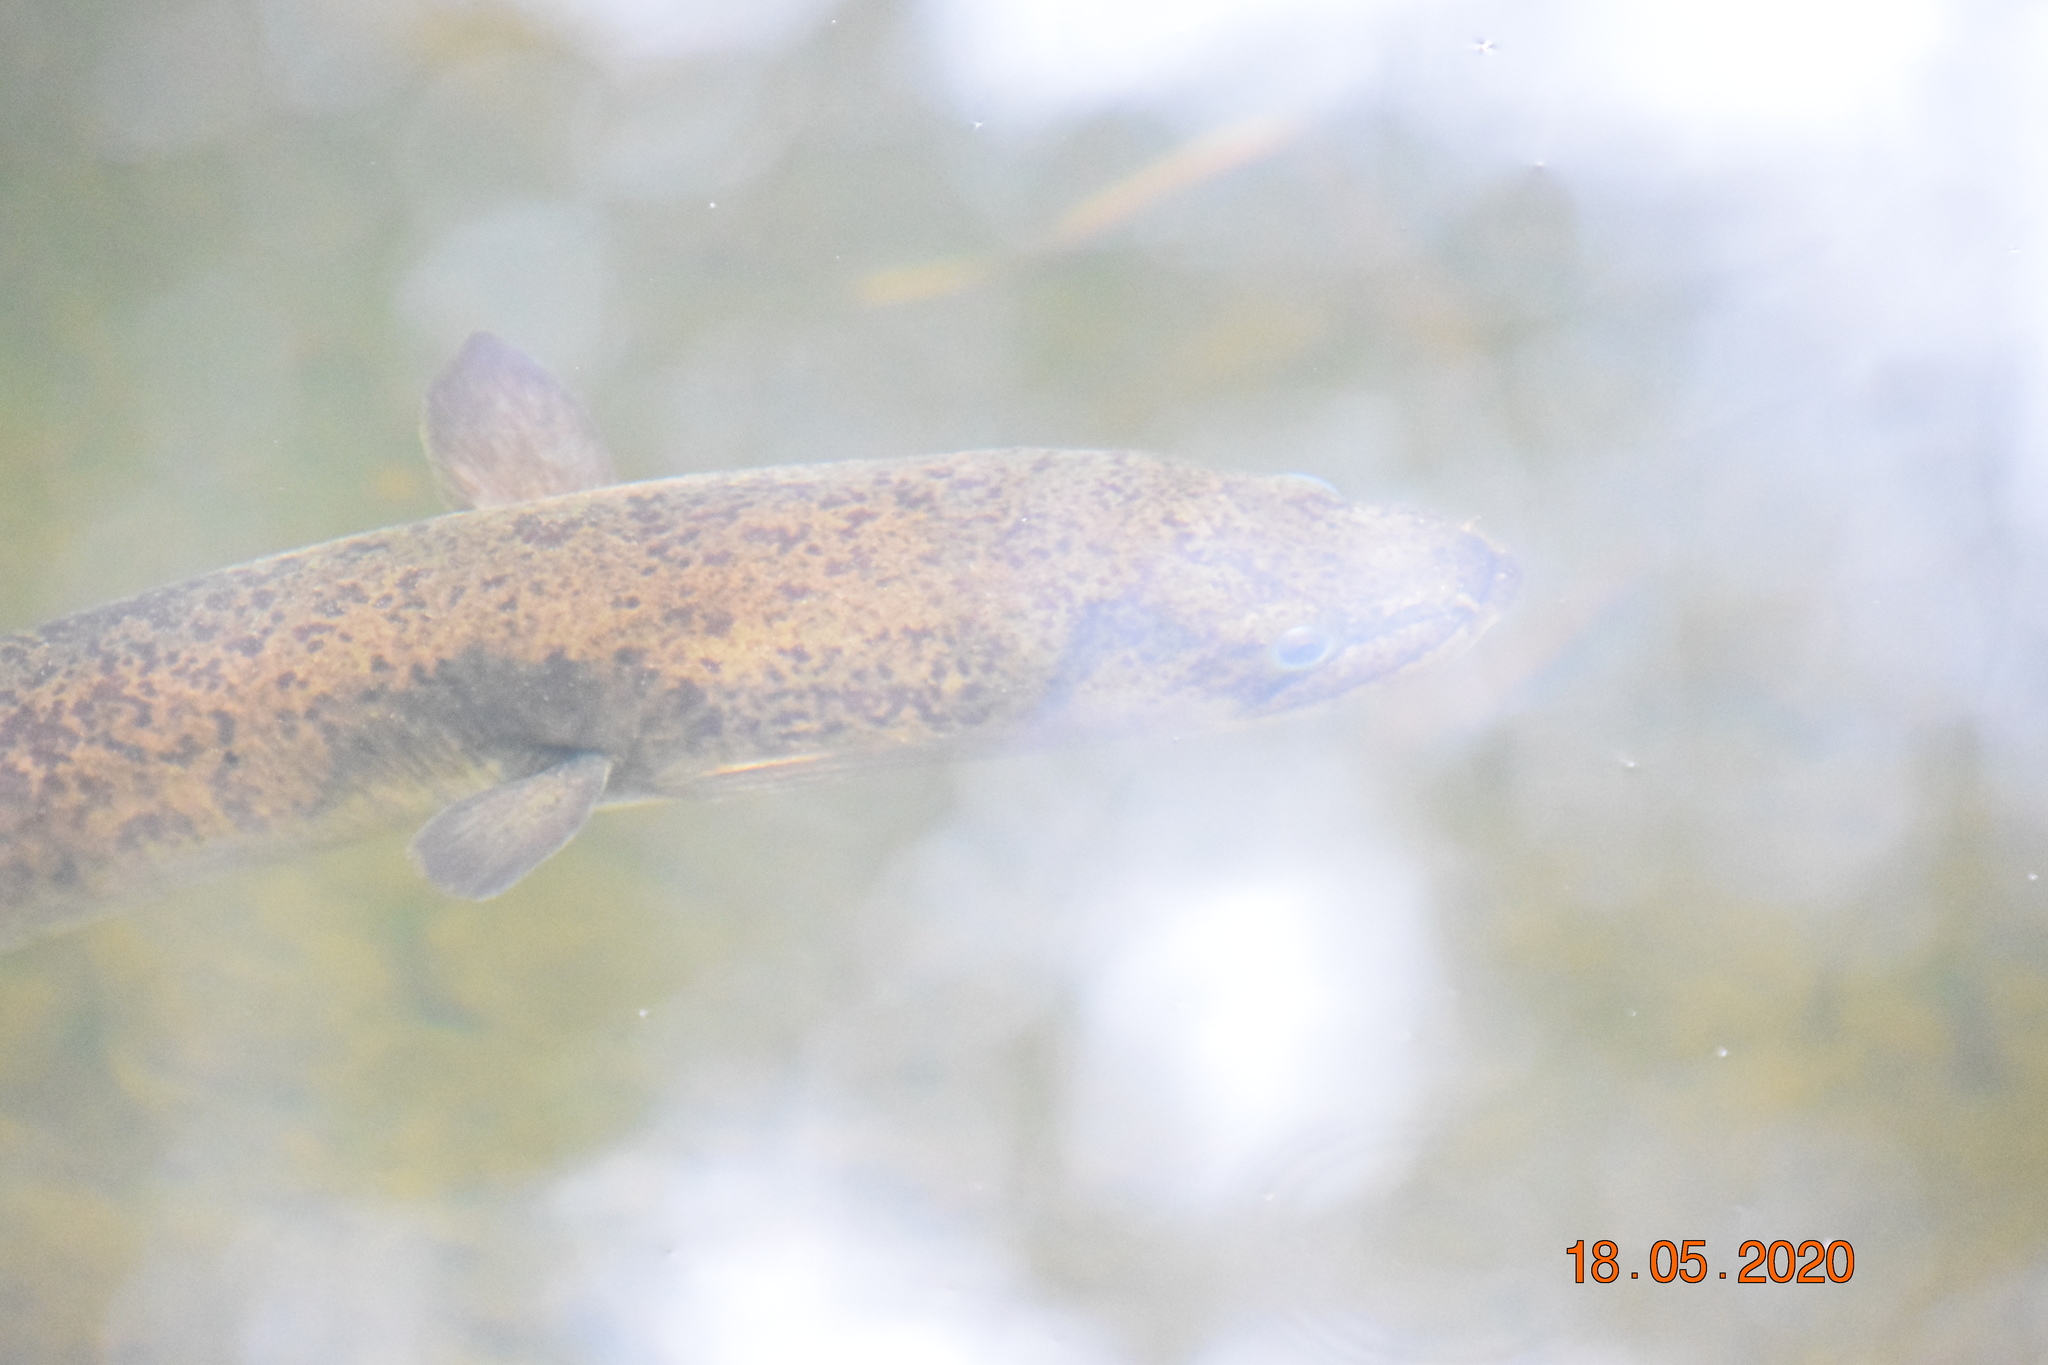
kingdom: Animalia
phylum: Chordata
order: Anguilliformes
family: Anguillidae
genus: Anguilla
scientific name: Anguilla reinhardtii
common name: Longfin eel
